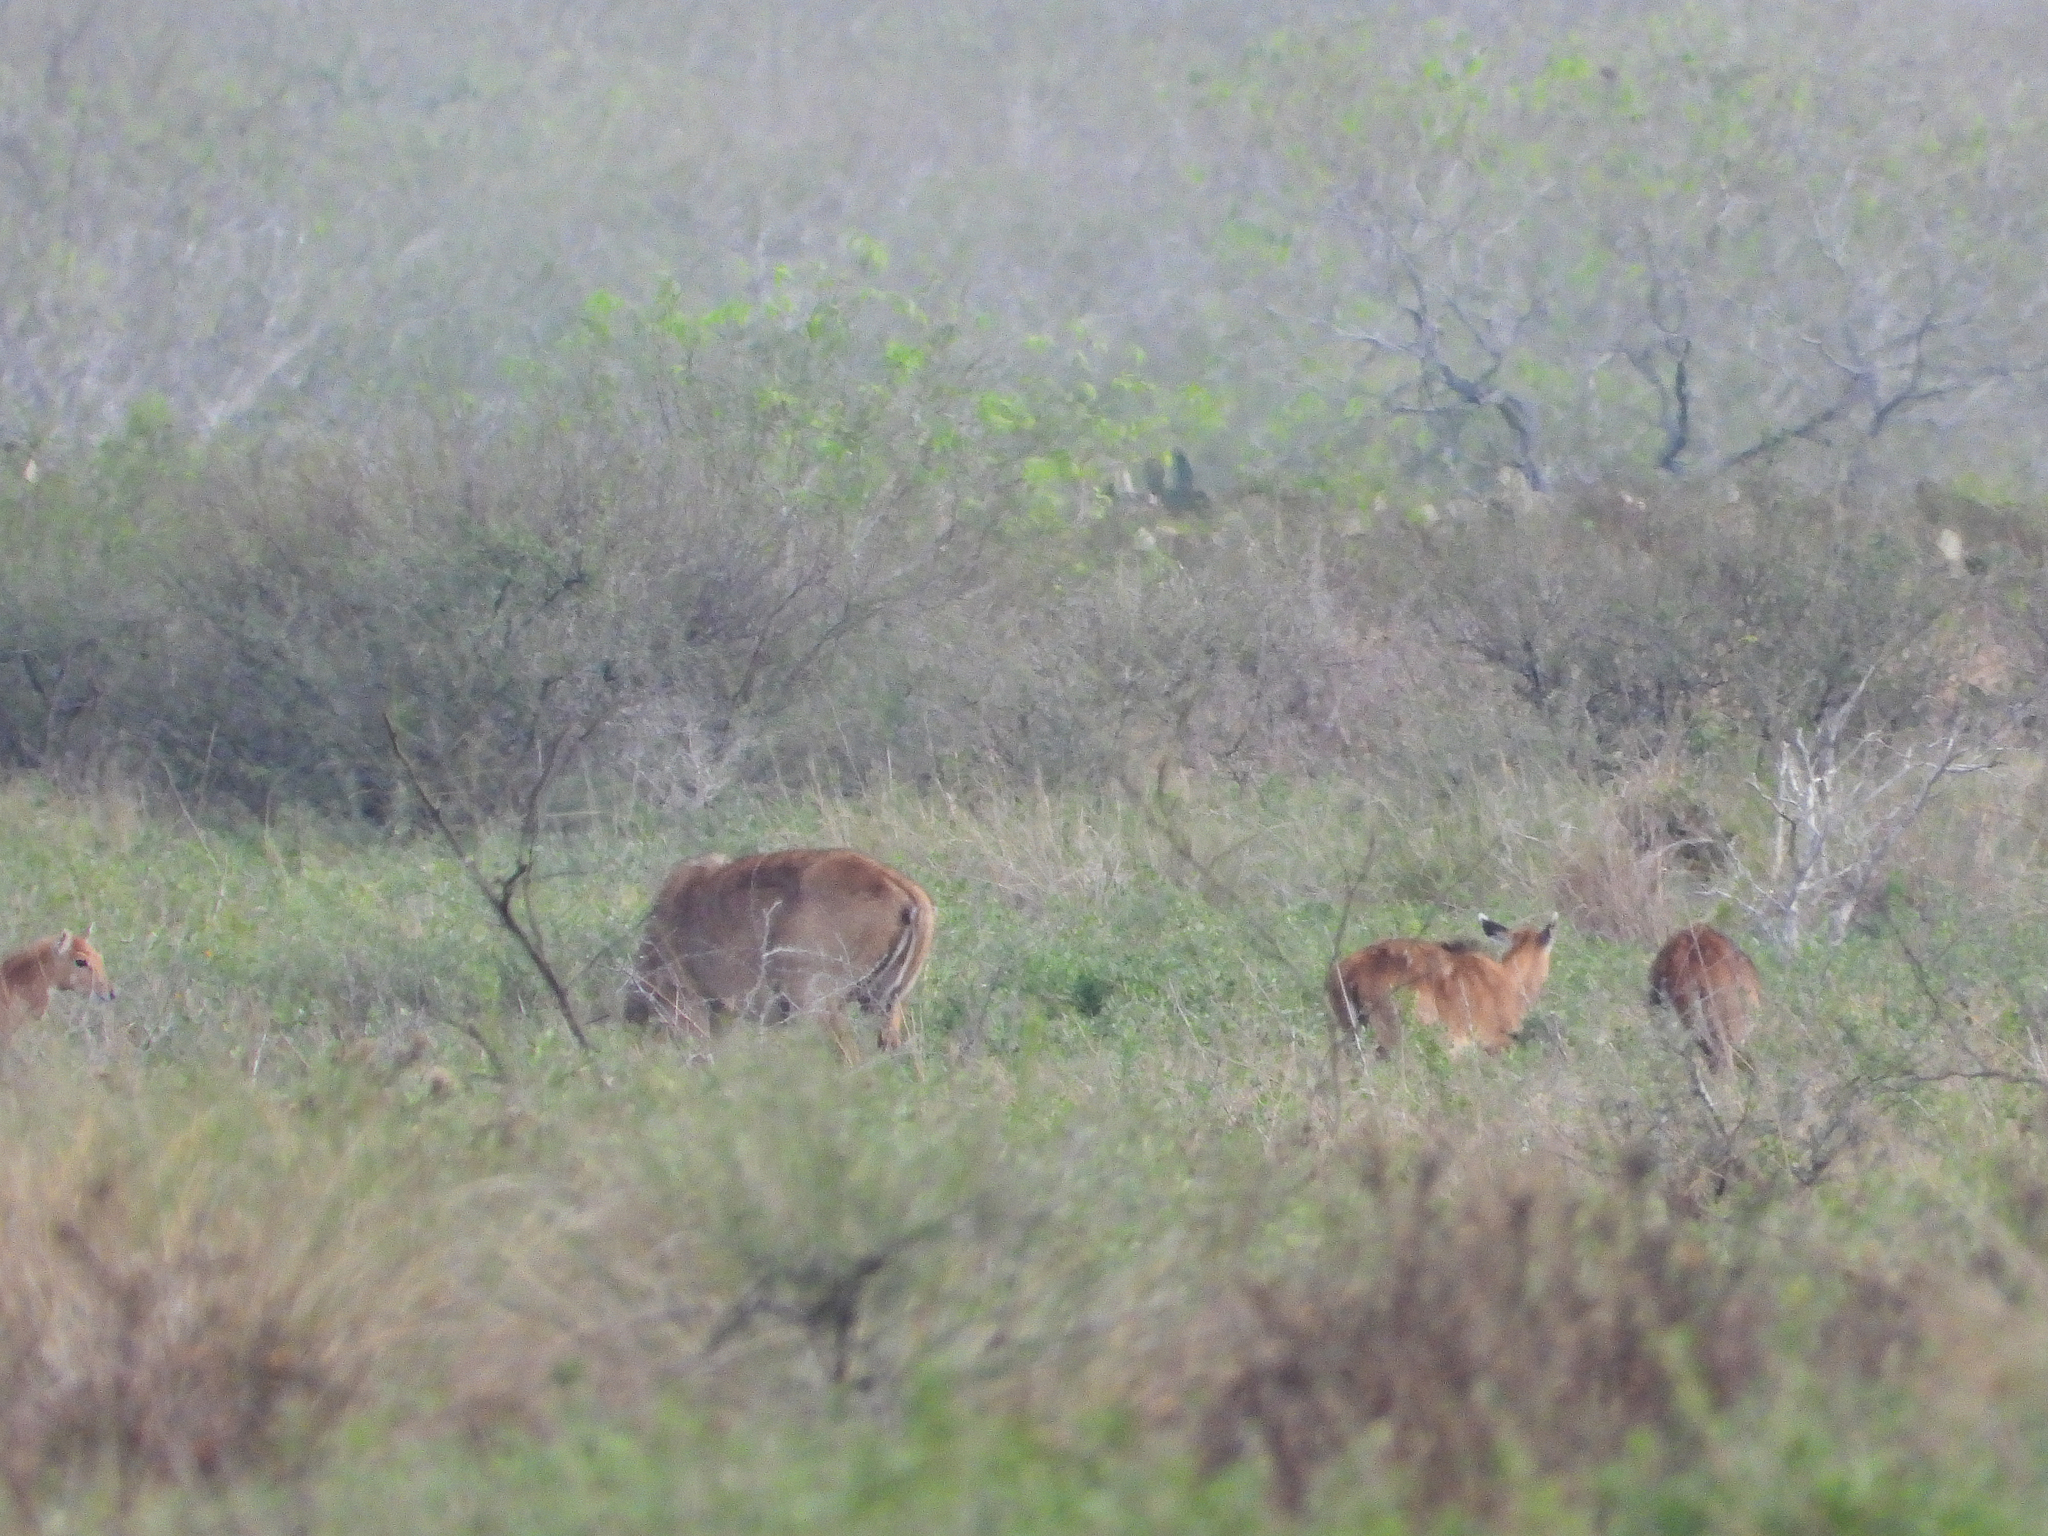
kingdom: Animalia
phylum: Chordata
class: Mammalia
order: Artiodactyla
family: Bovidae
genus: Boselaphus
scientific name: Boselaphus tragocamelus
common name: Nilgai
